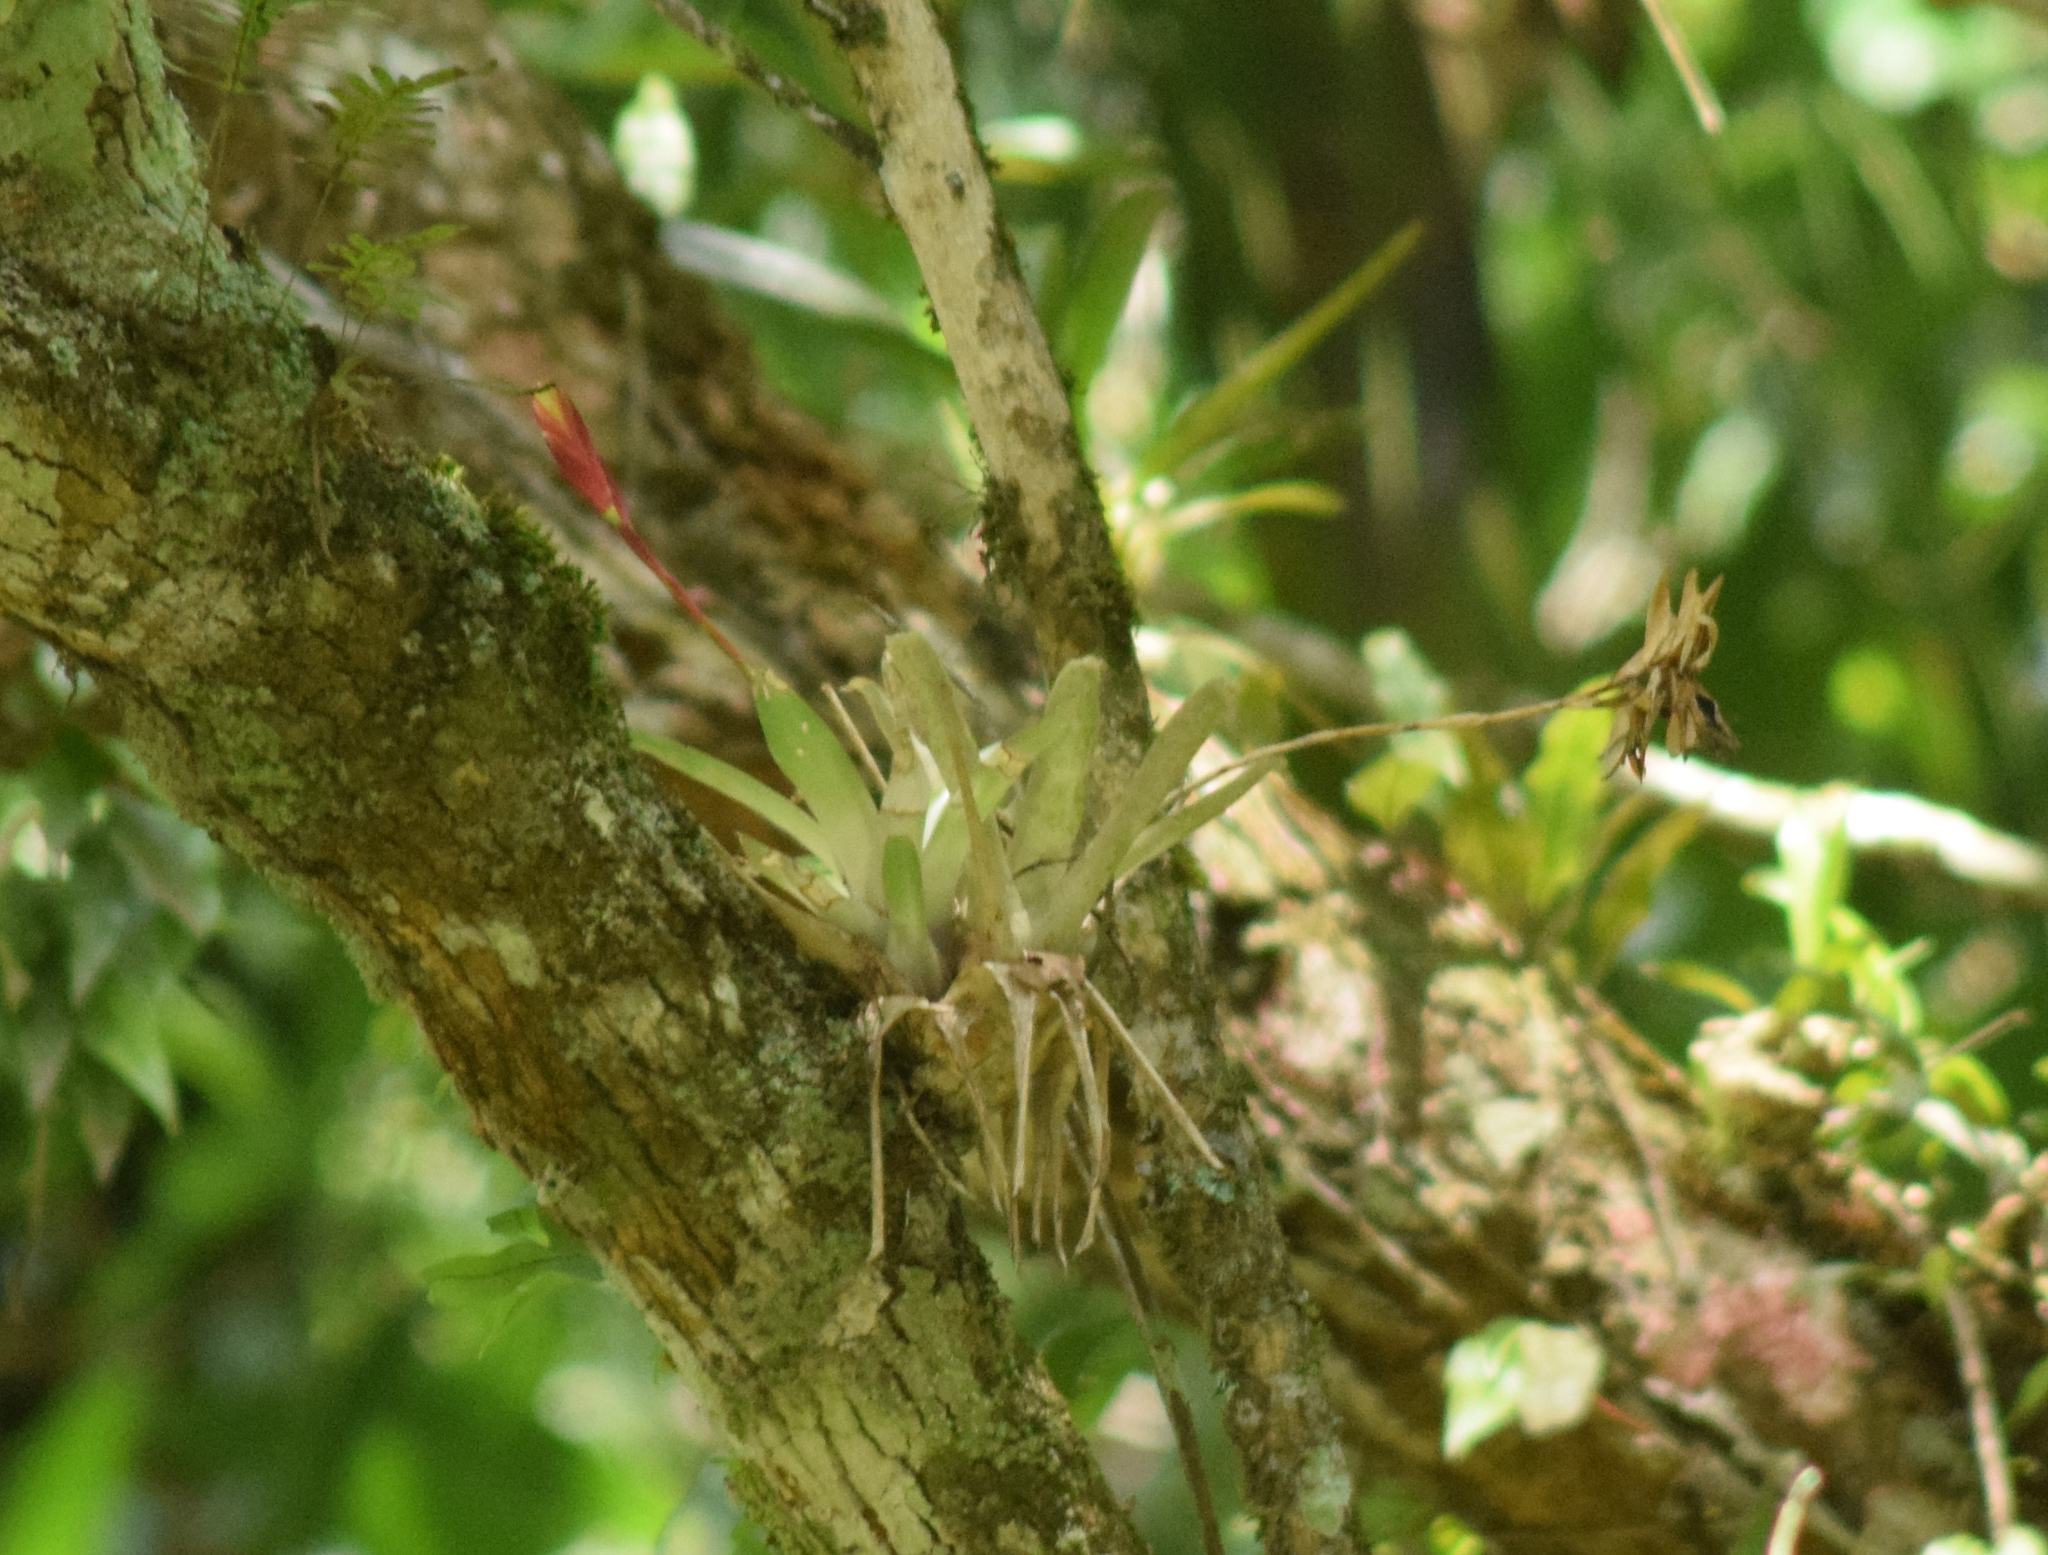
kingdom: Plantae
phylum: Tracheophyta
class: Liliopsida
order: Poales
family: Bromeliaceae
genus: Vriesea
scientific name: Vriesea carinata
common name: Lobster-claws
